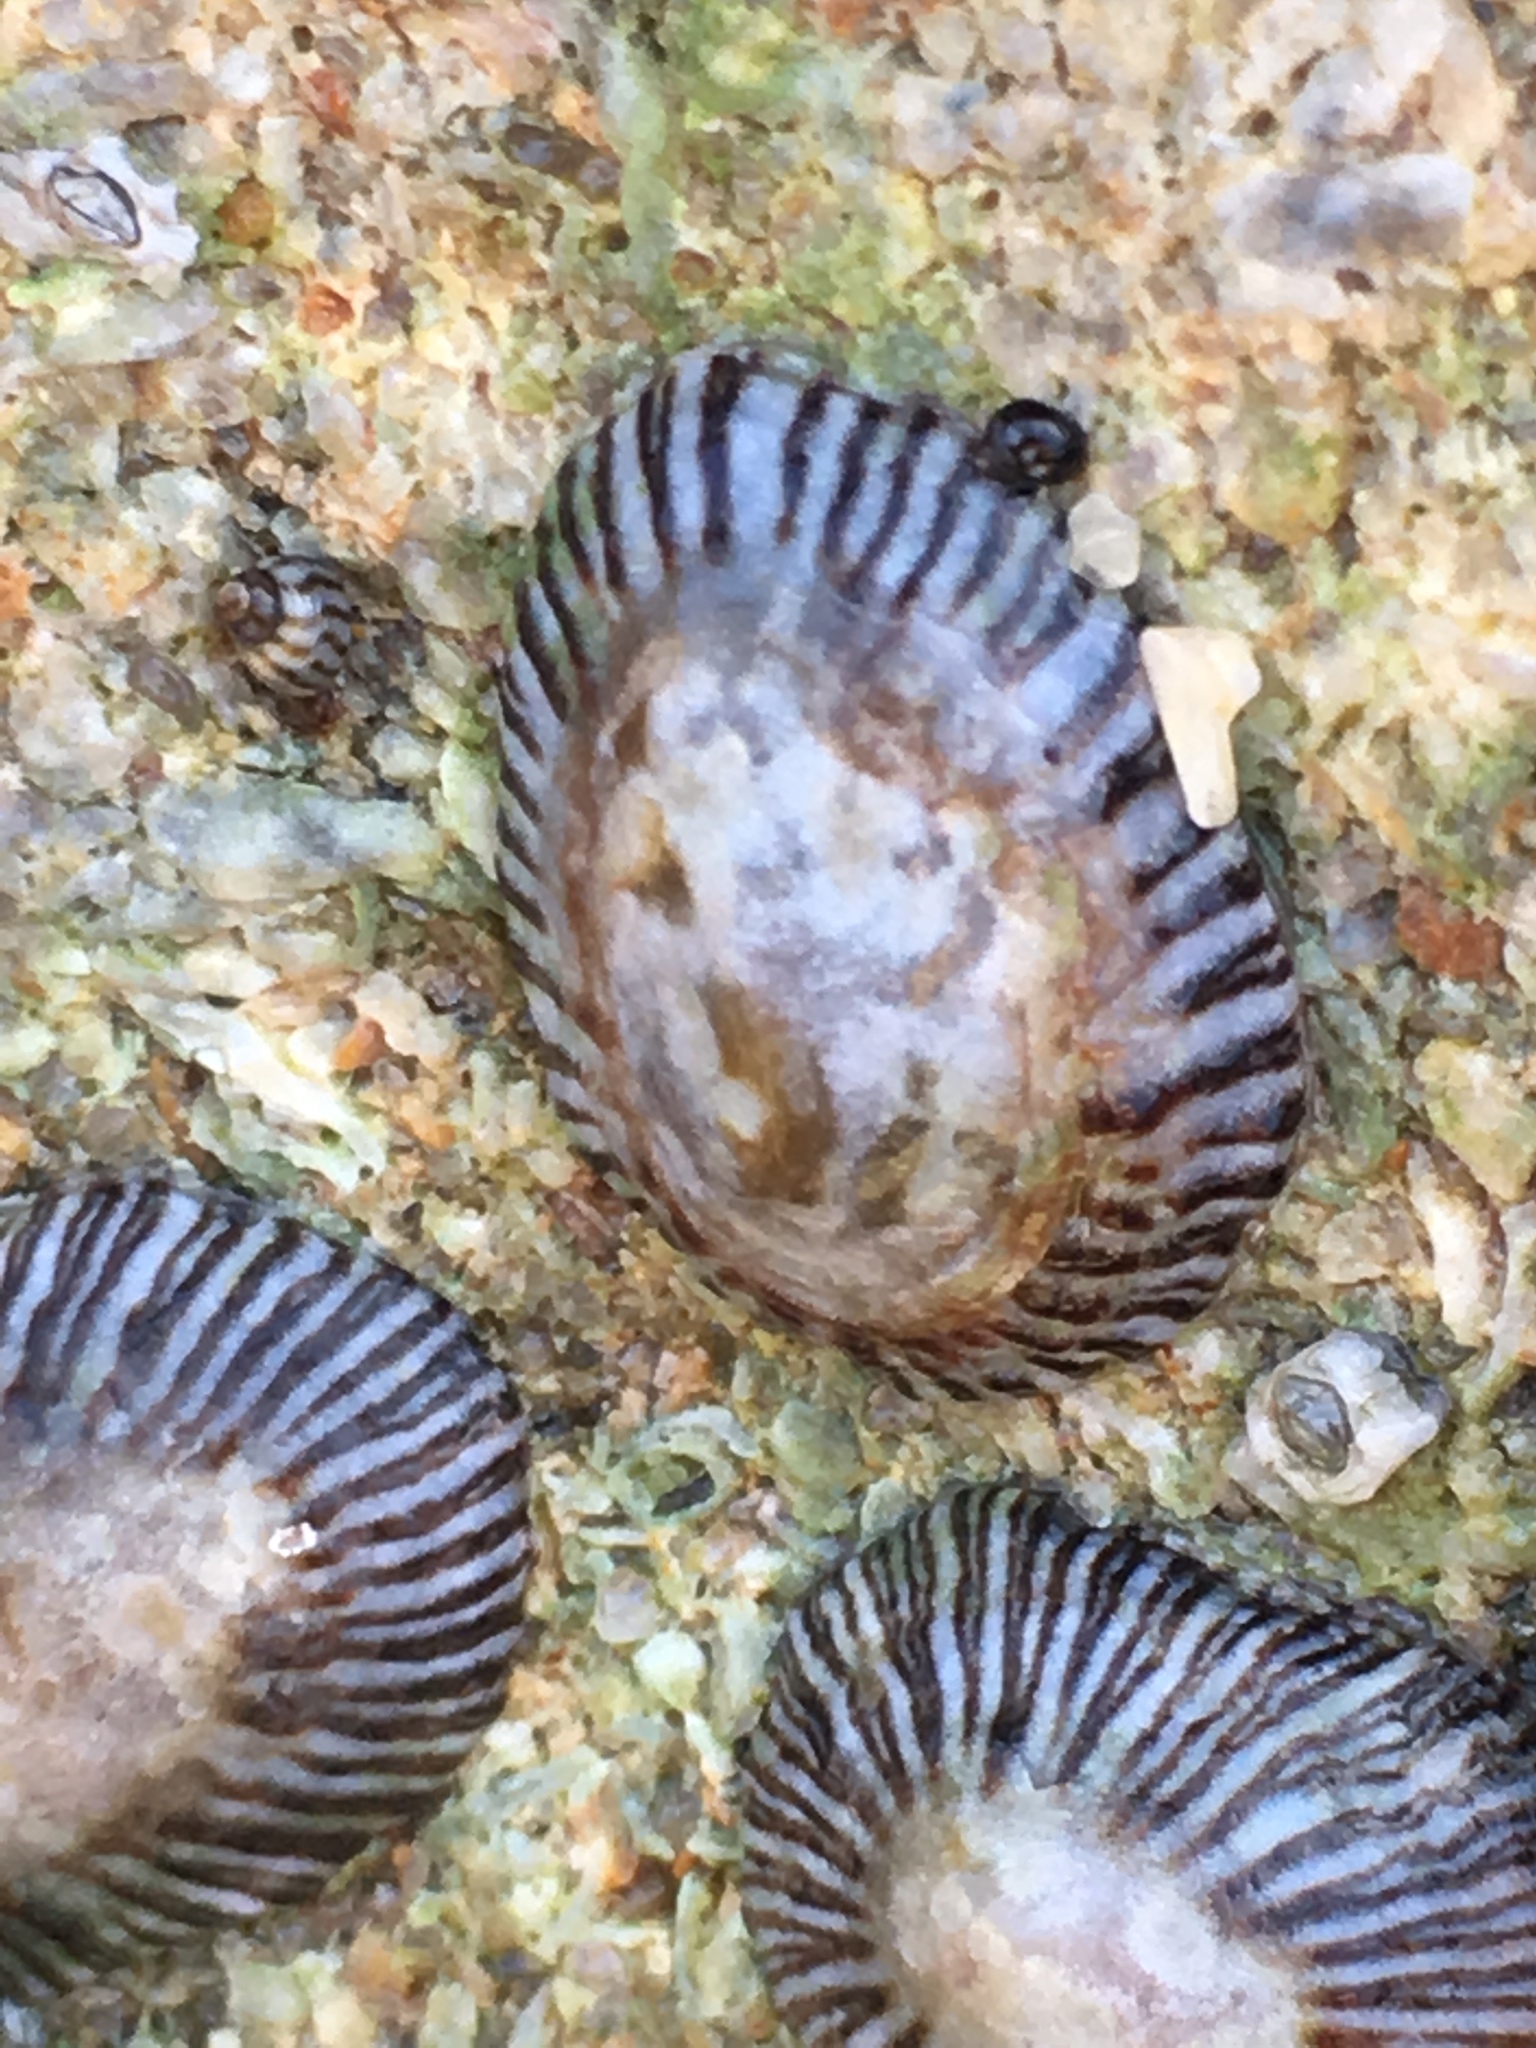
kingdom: Animalia
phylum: Mollusca
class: Gastropoda
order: Siphonariida
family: Siphonariidae
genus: Siphonaria
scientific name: Siphonaria naufragum
